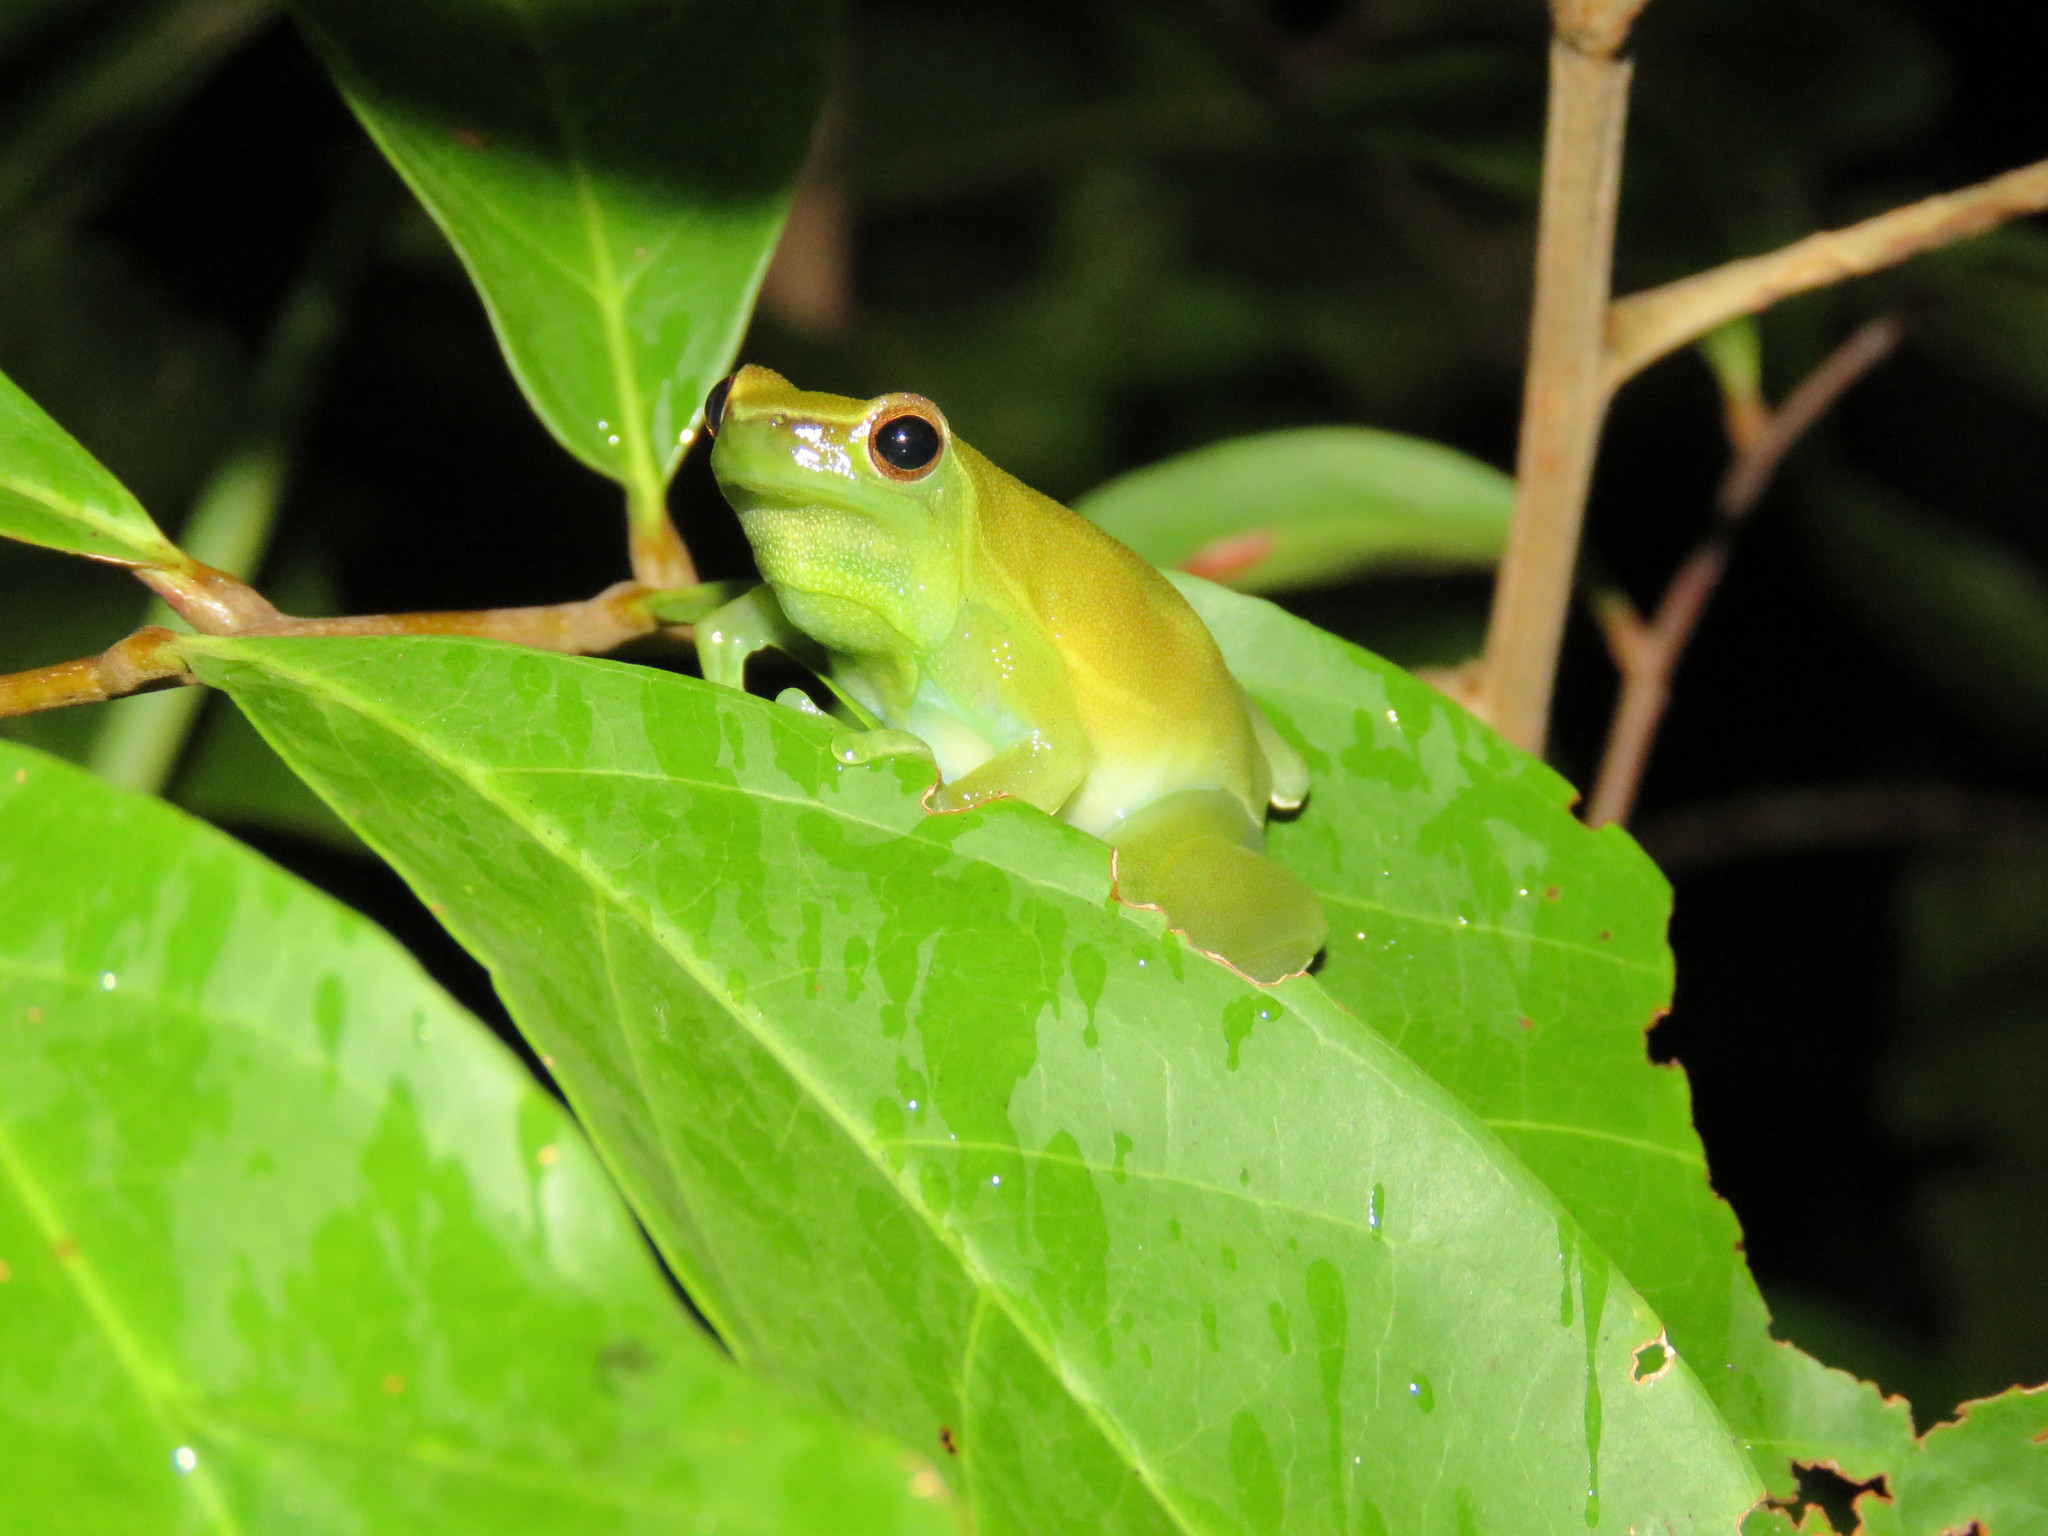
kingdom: Animalia
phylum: Chordata
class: Amphibia
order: Anura
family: Hylidae
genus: Sphaenorhynchus
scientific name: Sphaenorhynchus lacteus
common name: Orinoco lime treefrog
